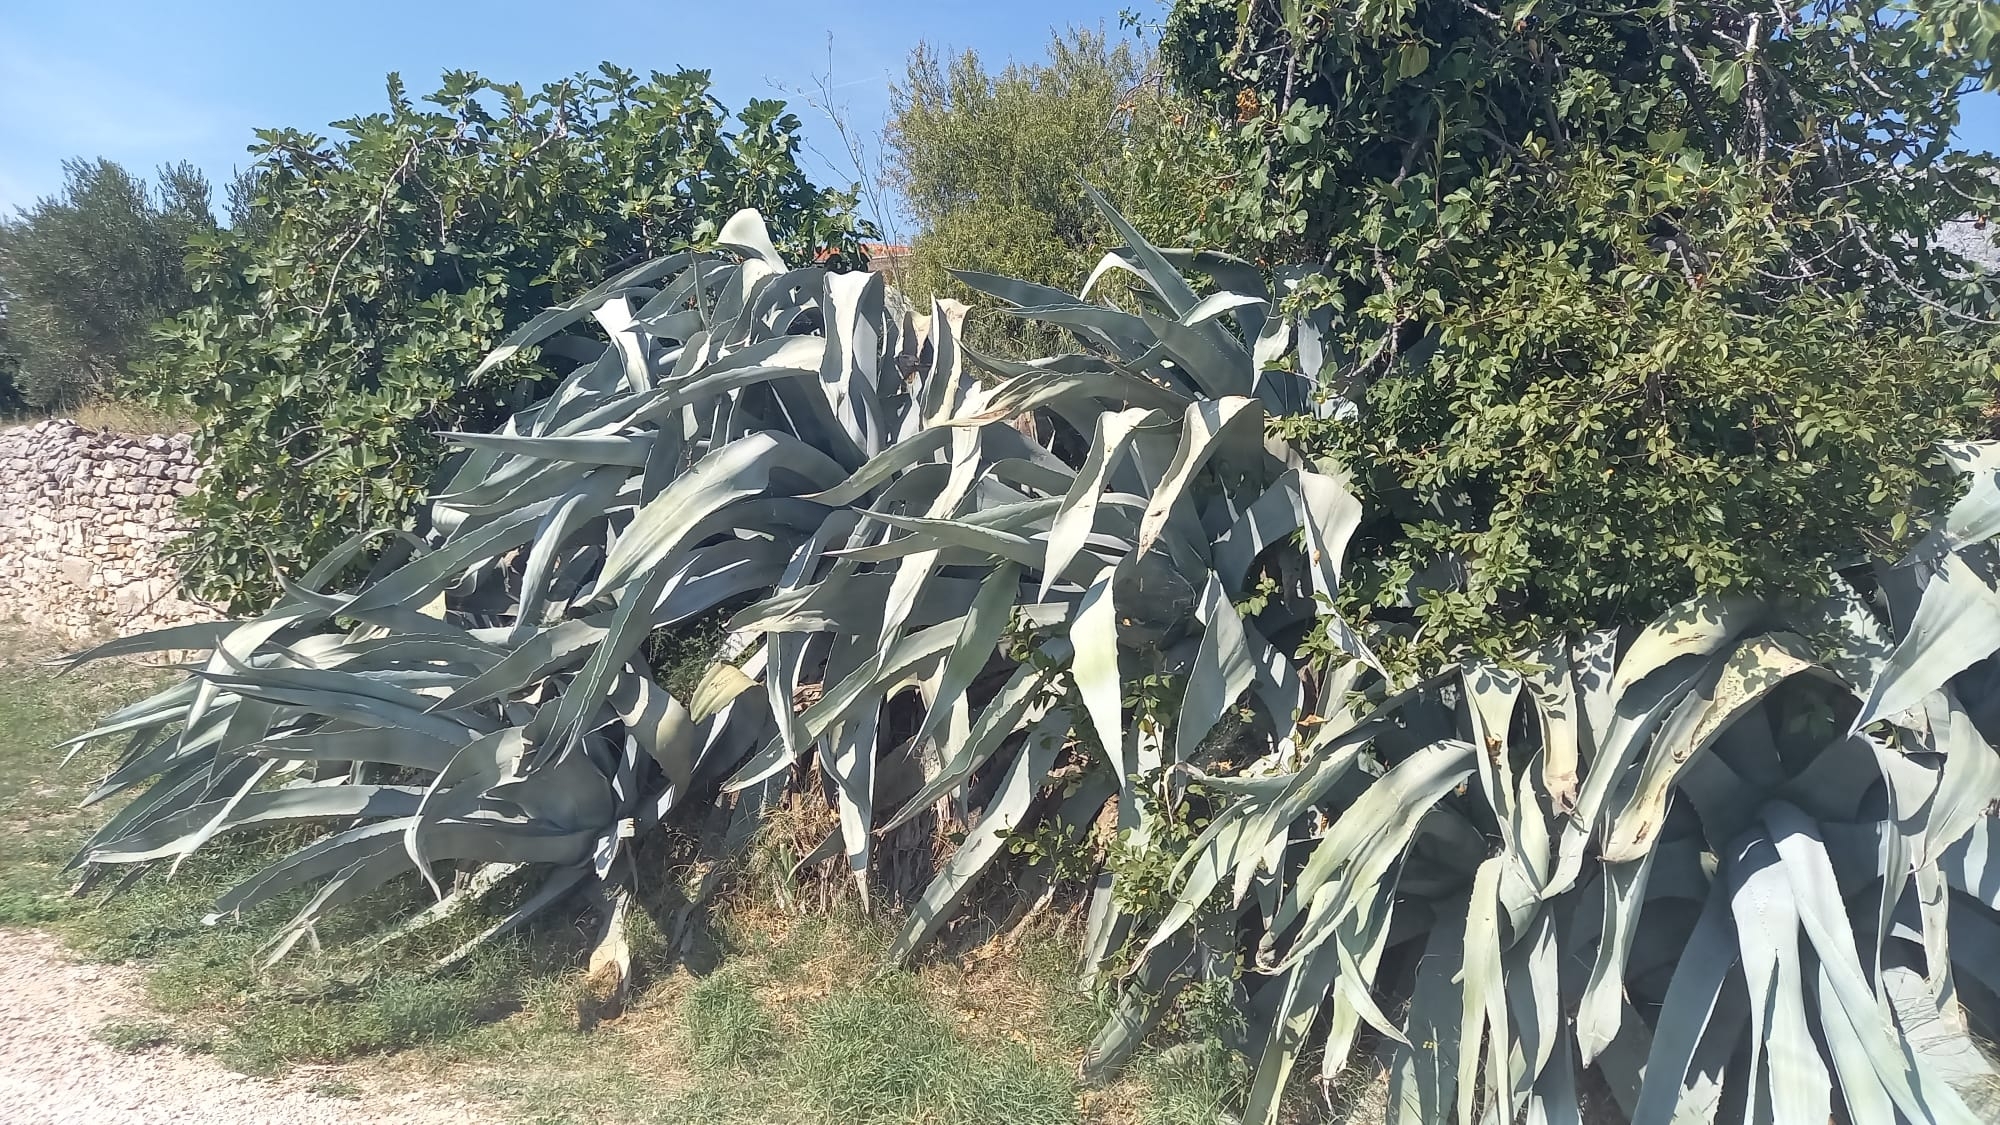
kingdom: Plantae
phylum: Tracheophyta
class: Liliopsida
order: Asparagales
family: Asparagaceae
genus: Agave
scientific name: Agave americana
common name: Centuryplant
